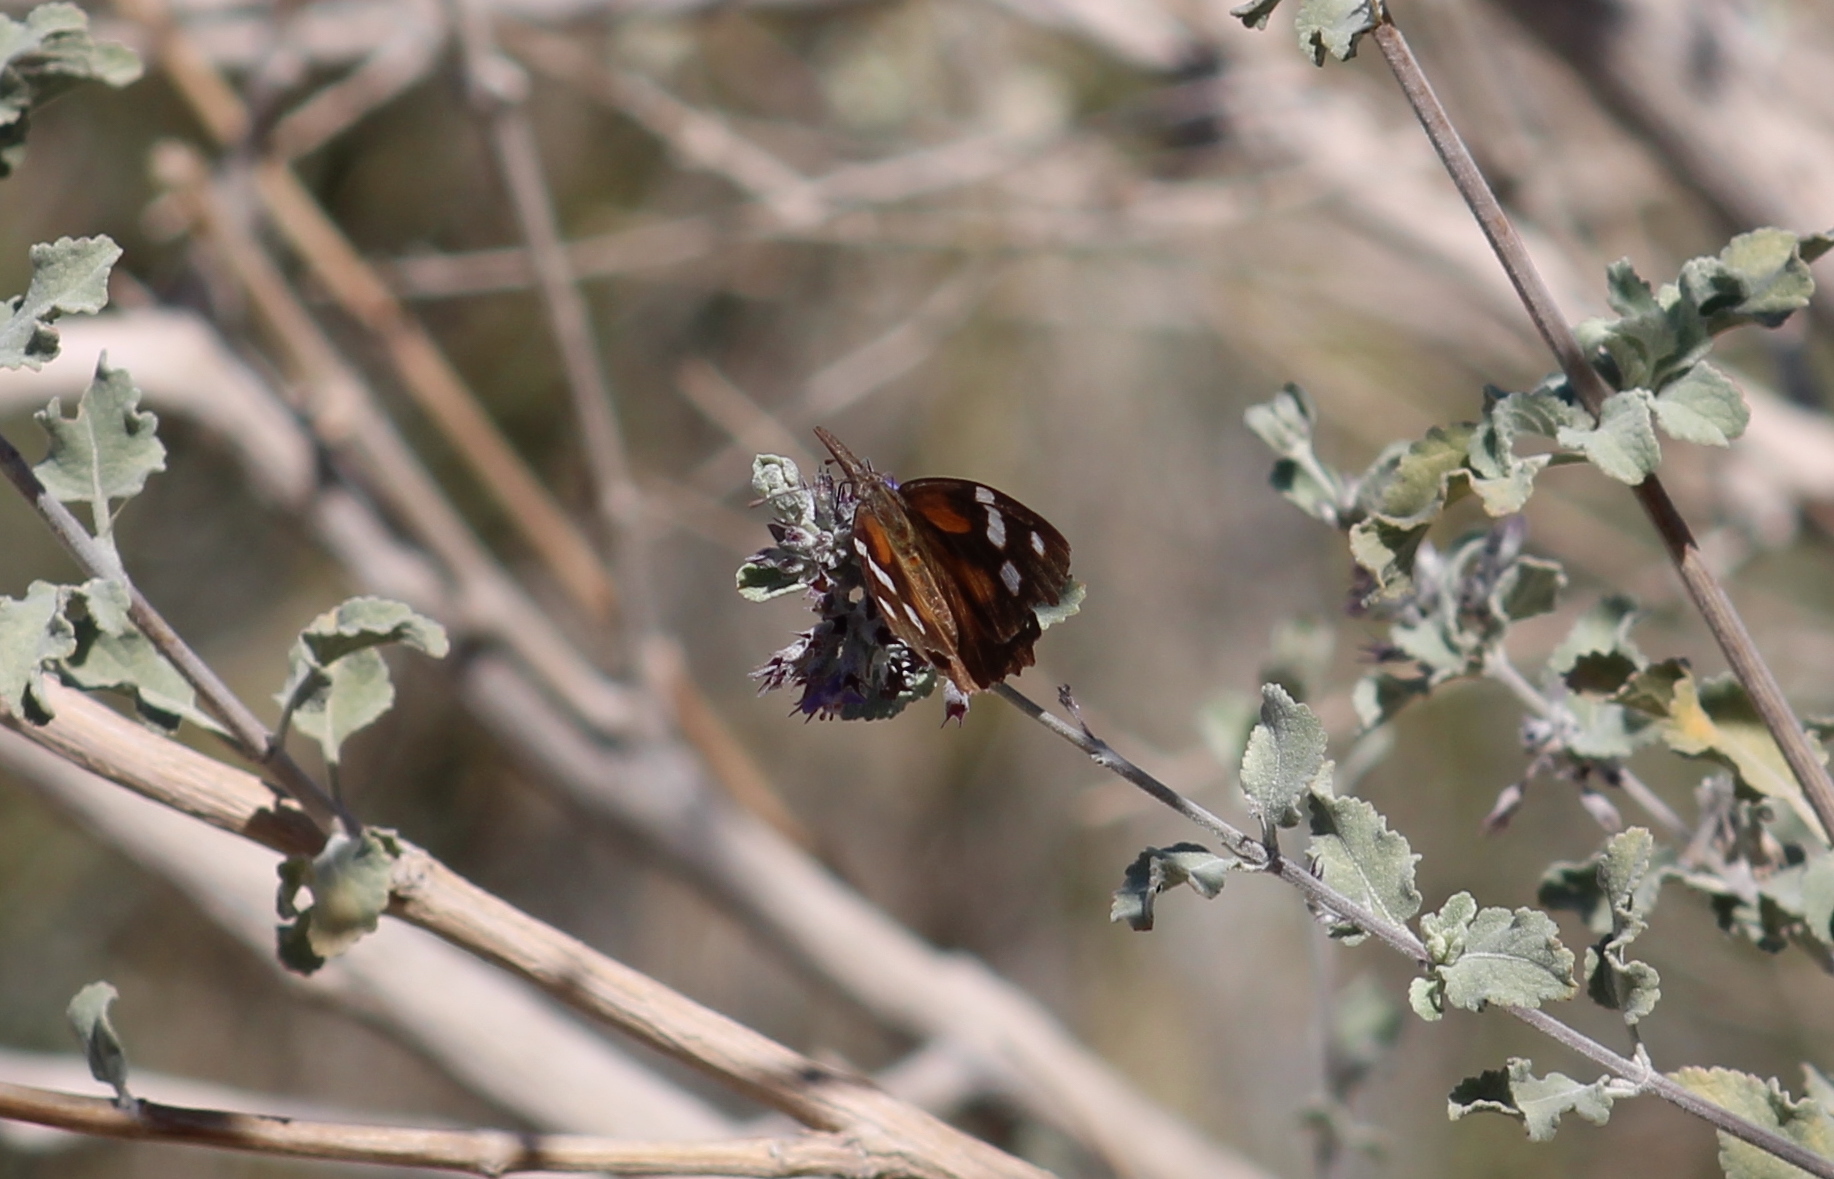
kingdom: Animalia
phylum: Arthropoda
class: Insecta
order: Lepidoptera
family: Nymphalidae
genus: Libytheana
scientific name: Libytheana carinenta
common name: American snout
